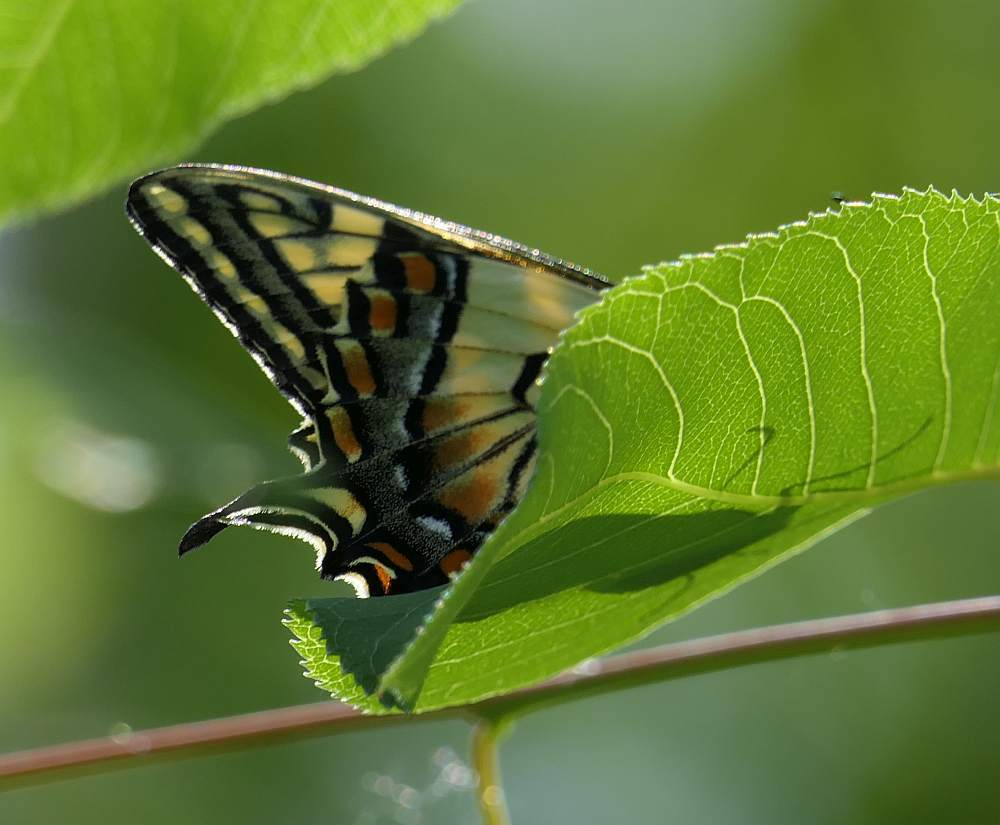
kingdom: Animalia
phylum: Arthropoda
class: Insecta
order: Lepidoptera
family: Papilionidae
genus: Papilio
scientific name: Papilio canadensis
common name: Canadian tiger swallowtail
